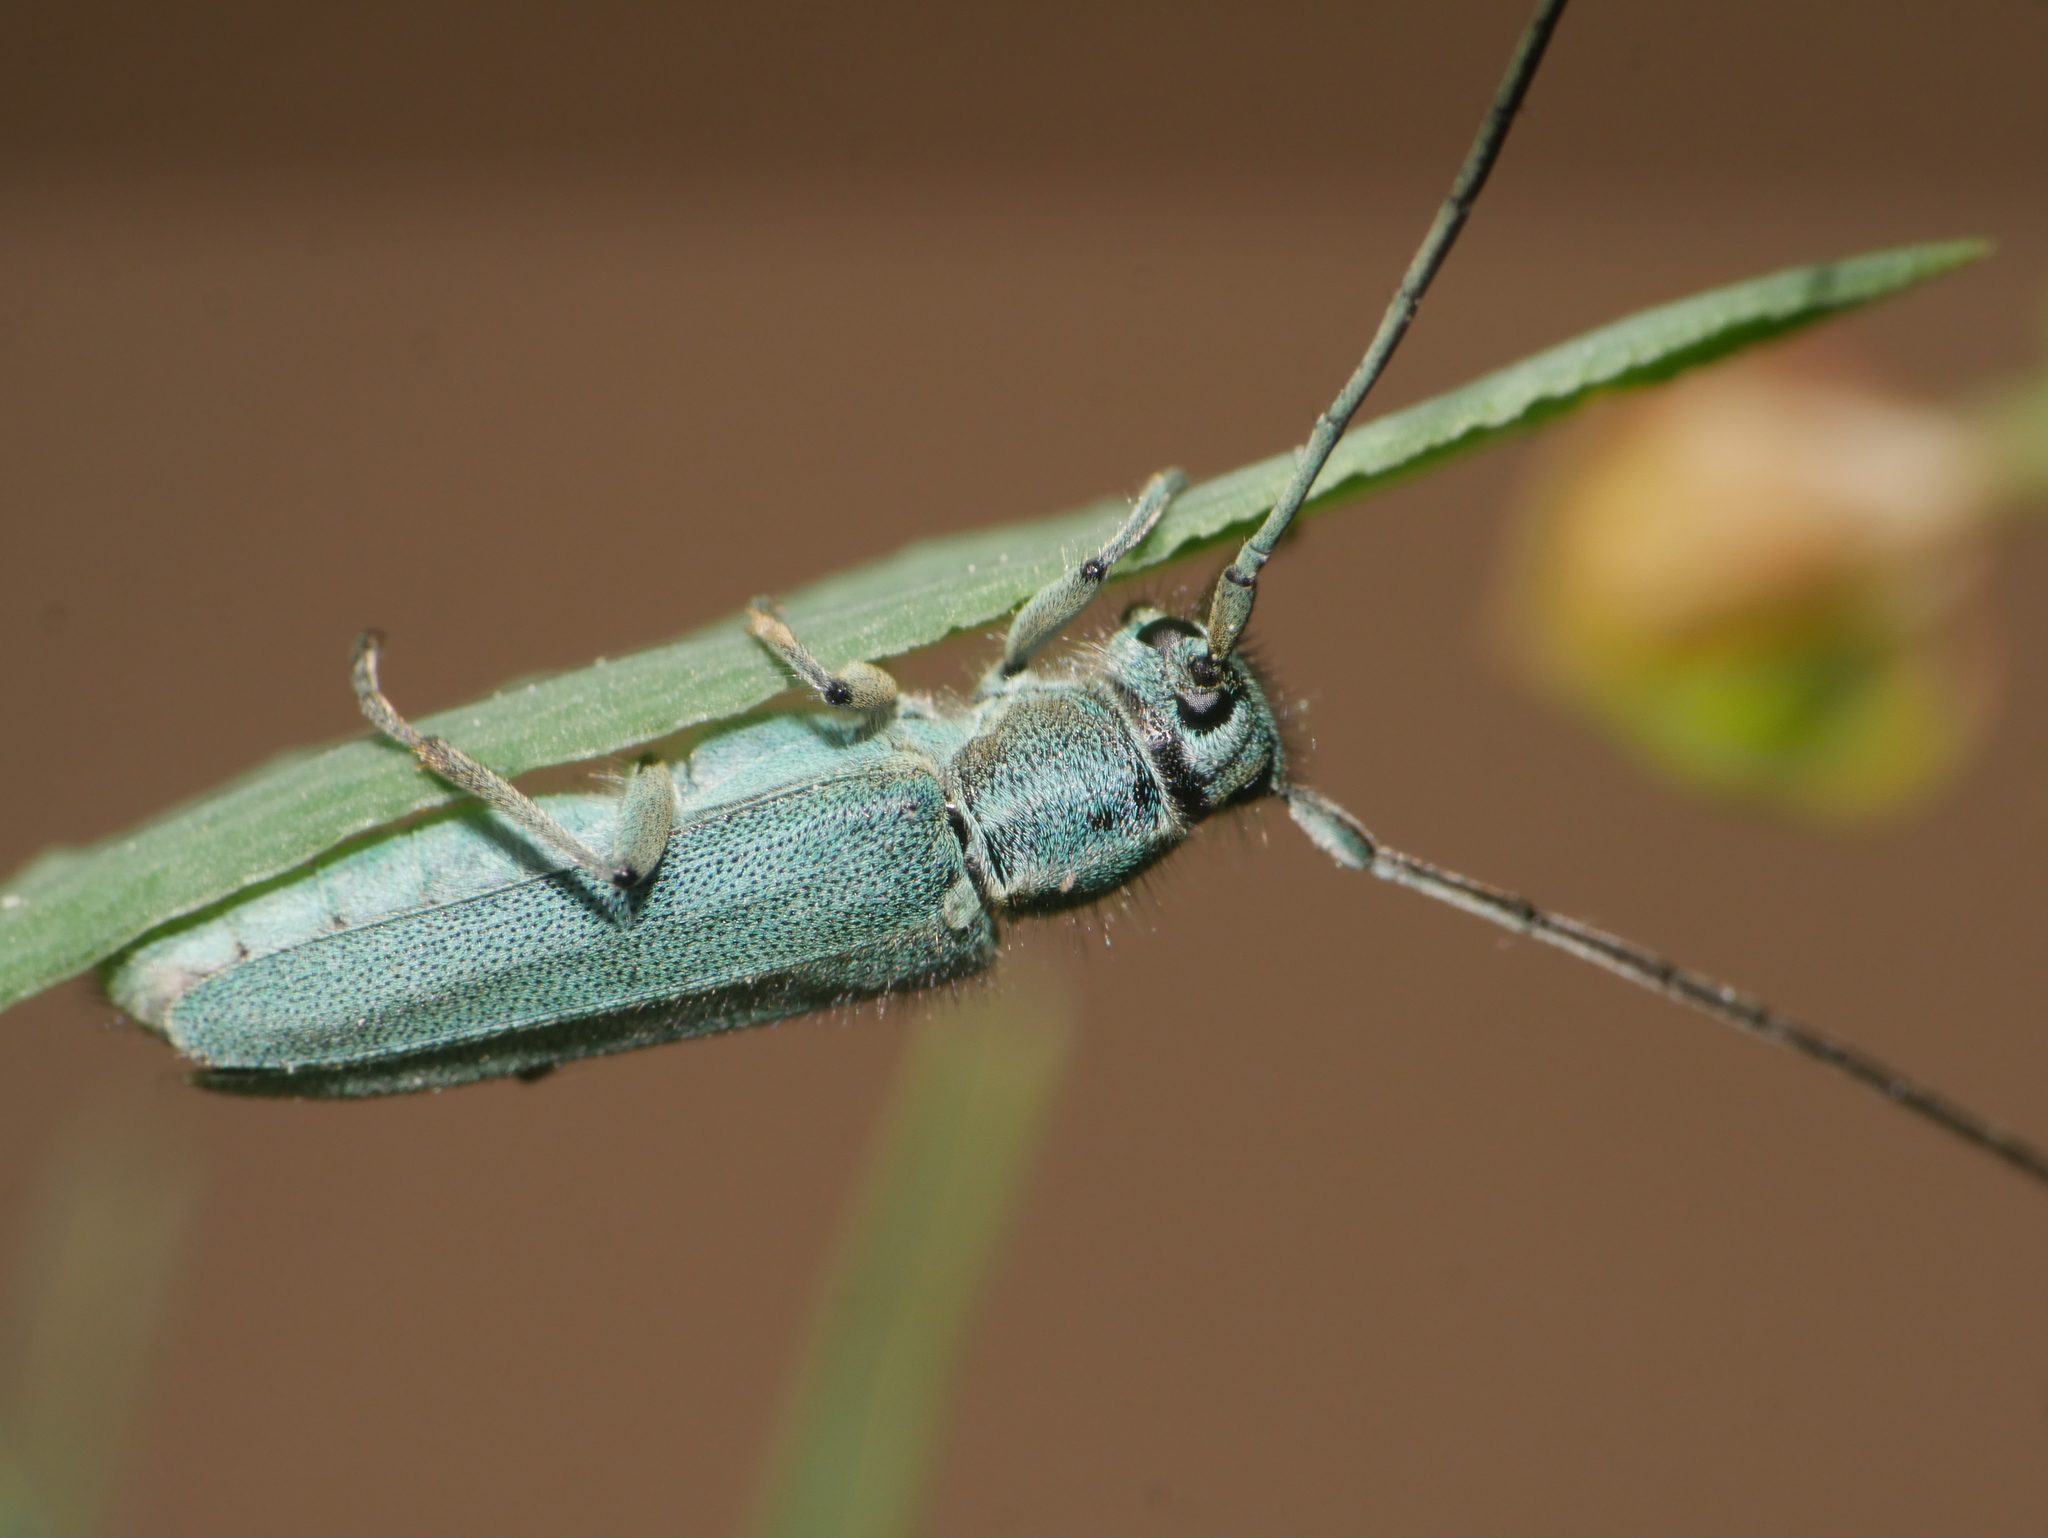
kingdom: Animalia
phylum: Arthropoda
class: Insecta
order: Coleoptera
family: Cerambycidae
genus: Phytoecia
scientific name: Phytoecia coerulescens
